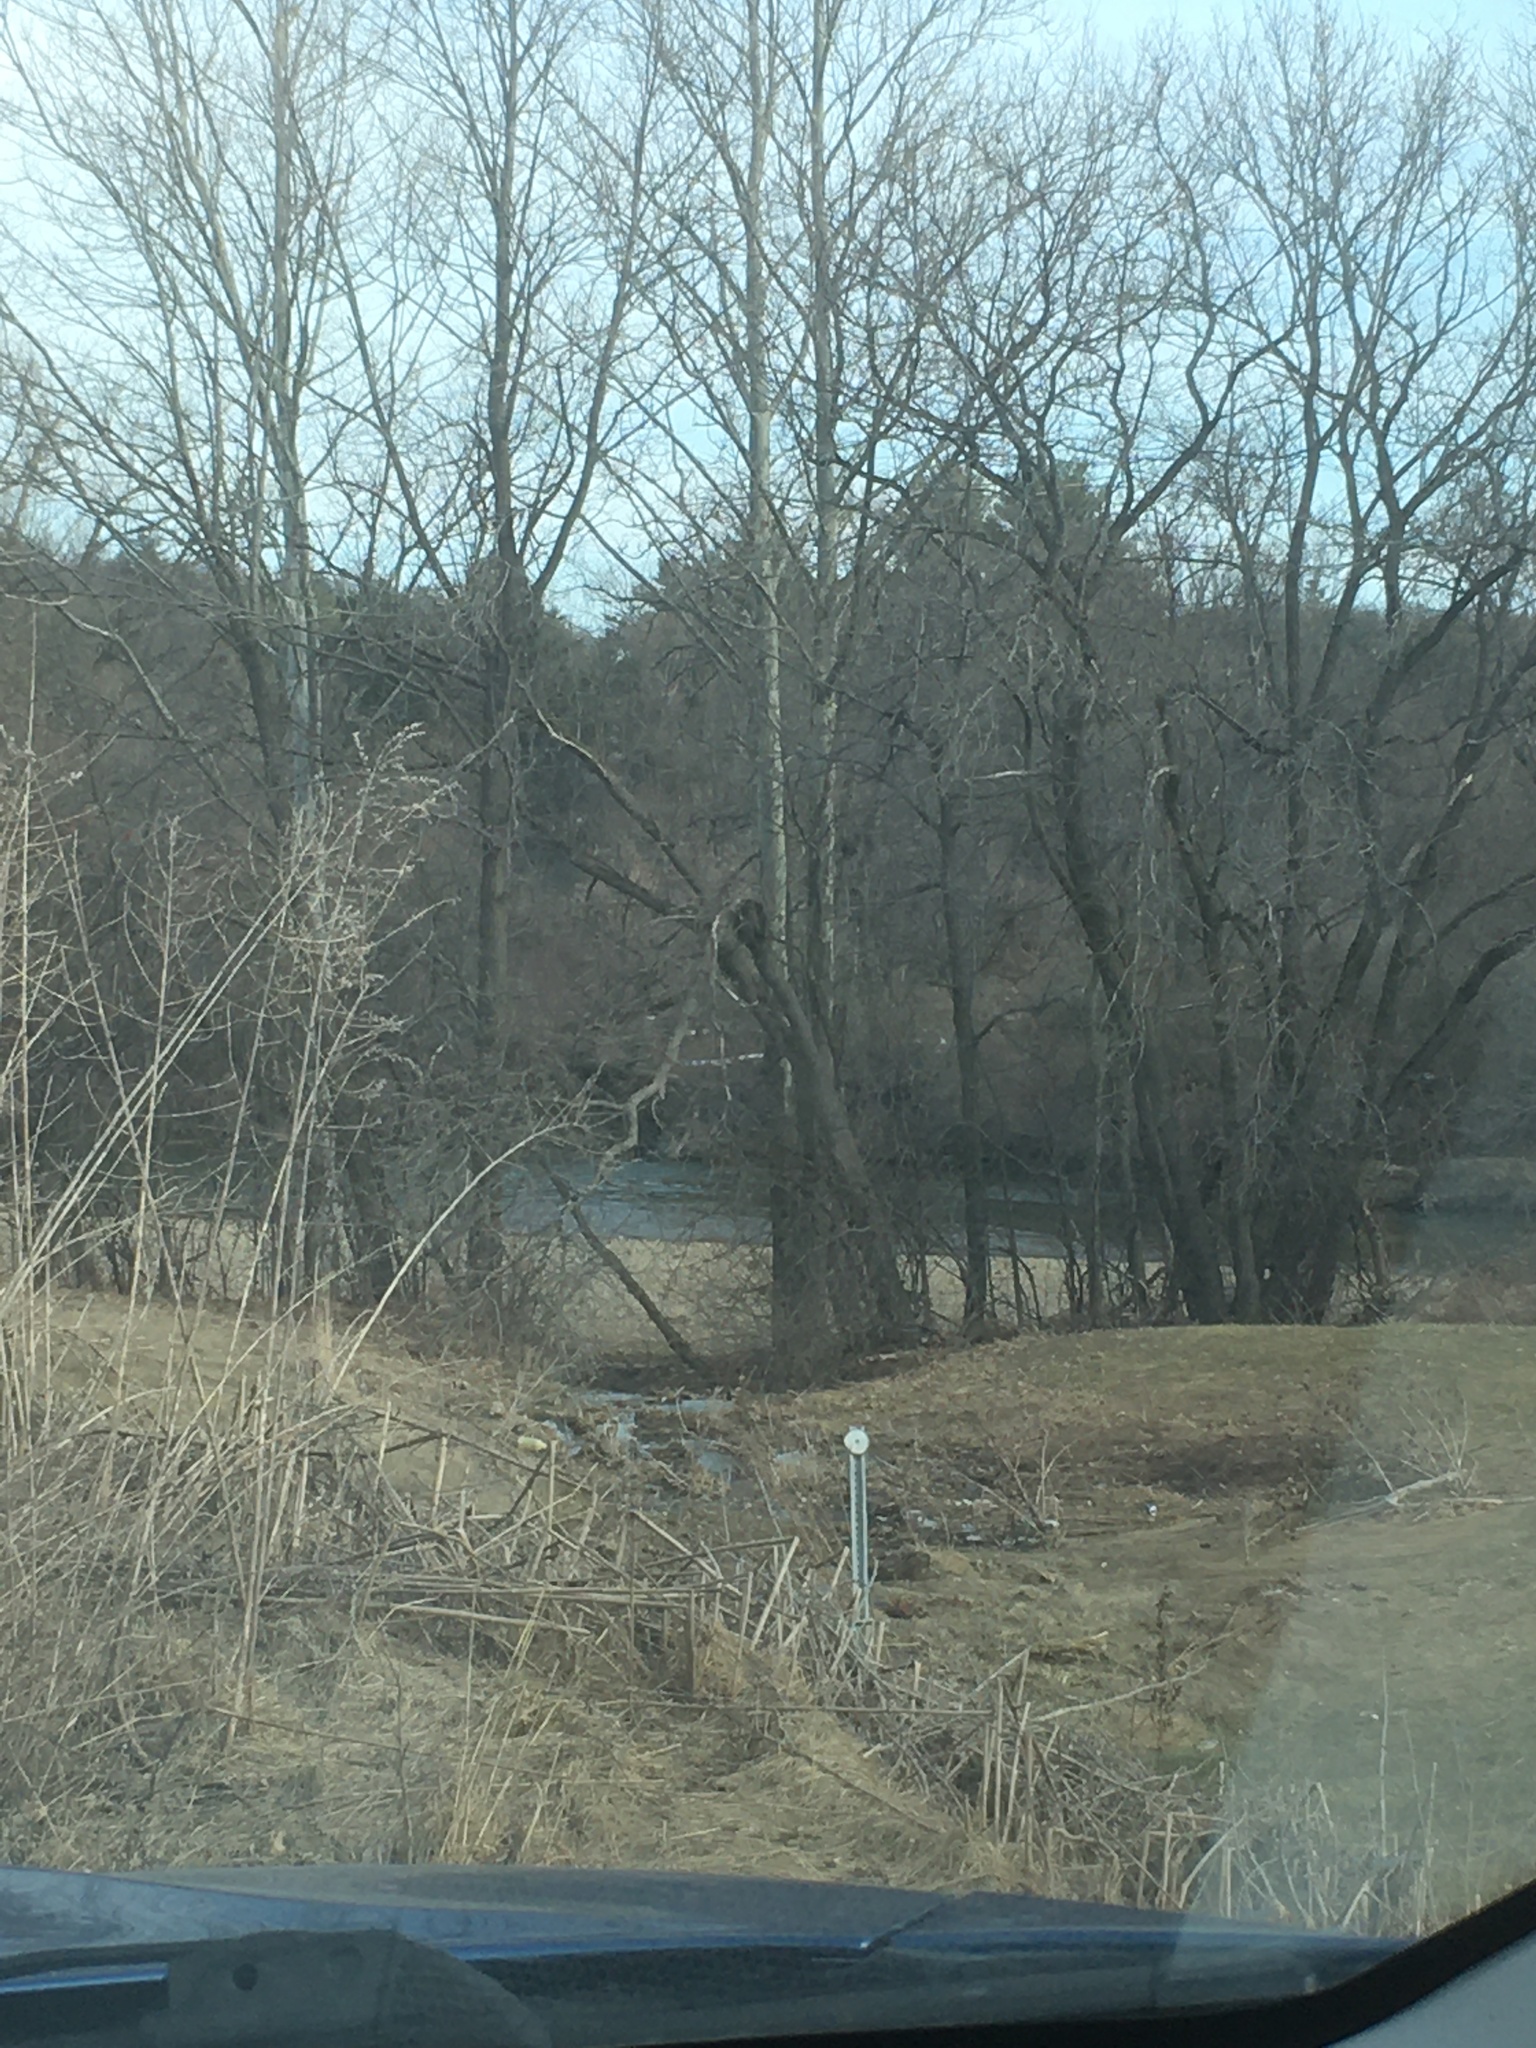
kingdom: Plantae
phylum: Tracheophyta
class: Magnoliopsida
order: Proteales
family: Platanaceae
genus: Platanus
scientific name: Platanus occidentalis
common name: American sycamore
